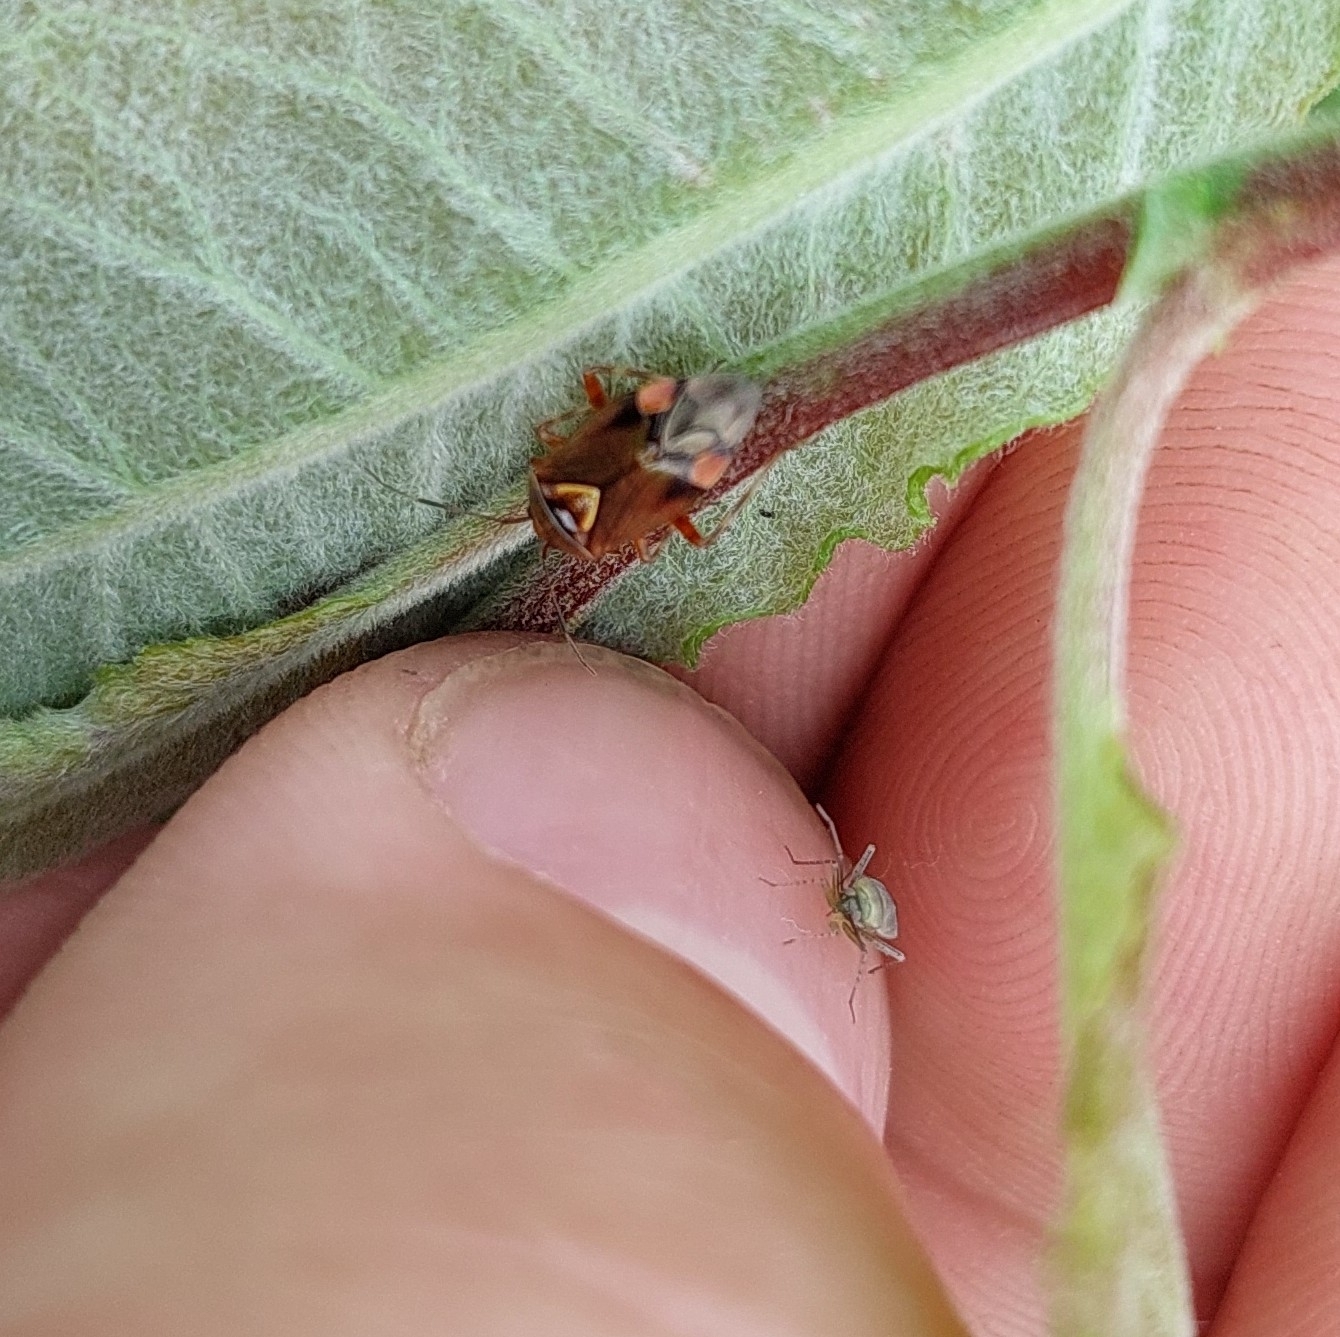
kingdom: Animalia
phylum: Arthropoda
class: Insecta
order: Hemiptera
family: Miridae
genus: Deraeocoris
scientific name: Deraeocoris flavilinea
